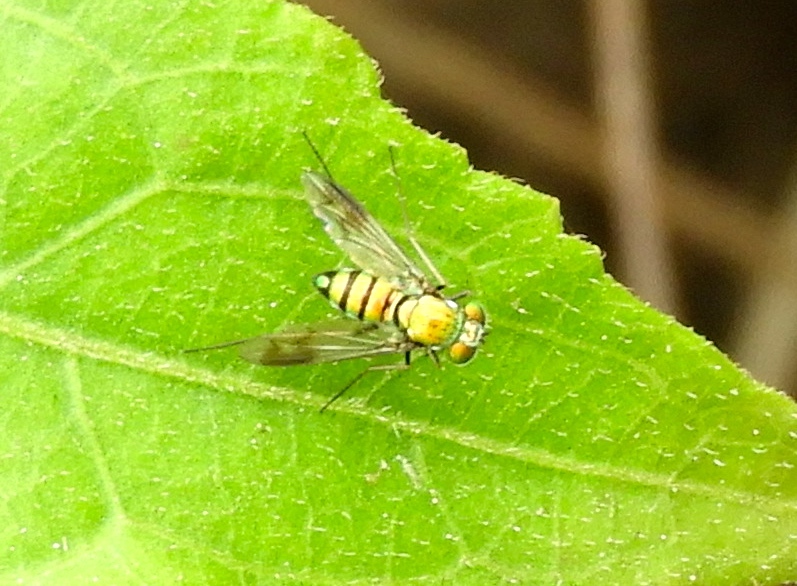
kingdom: Animalia
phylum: Arthropoda
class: Insecta
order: Diptera
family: Dolichopodidae
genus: Condylostylus
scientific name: Condylostylus
